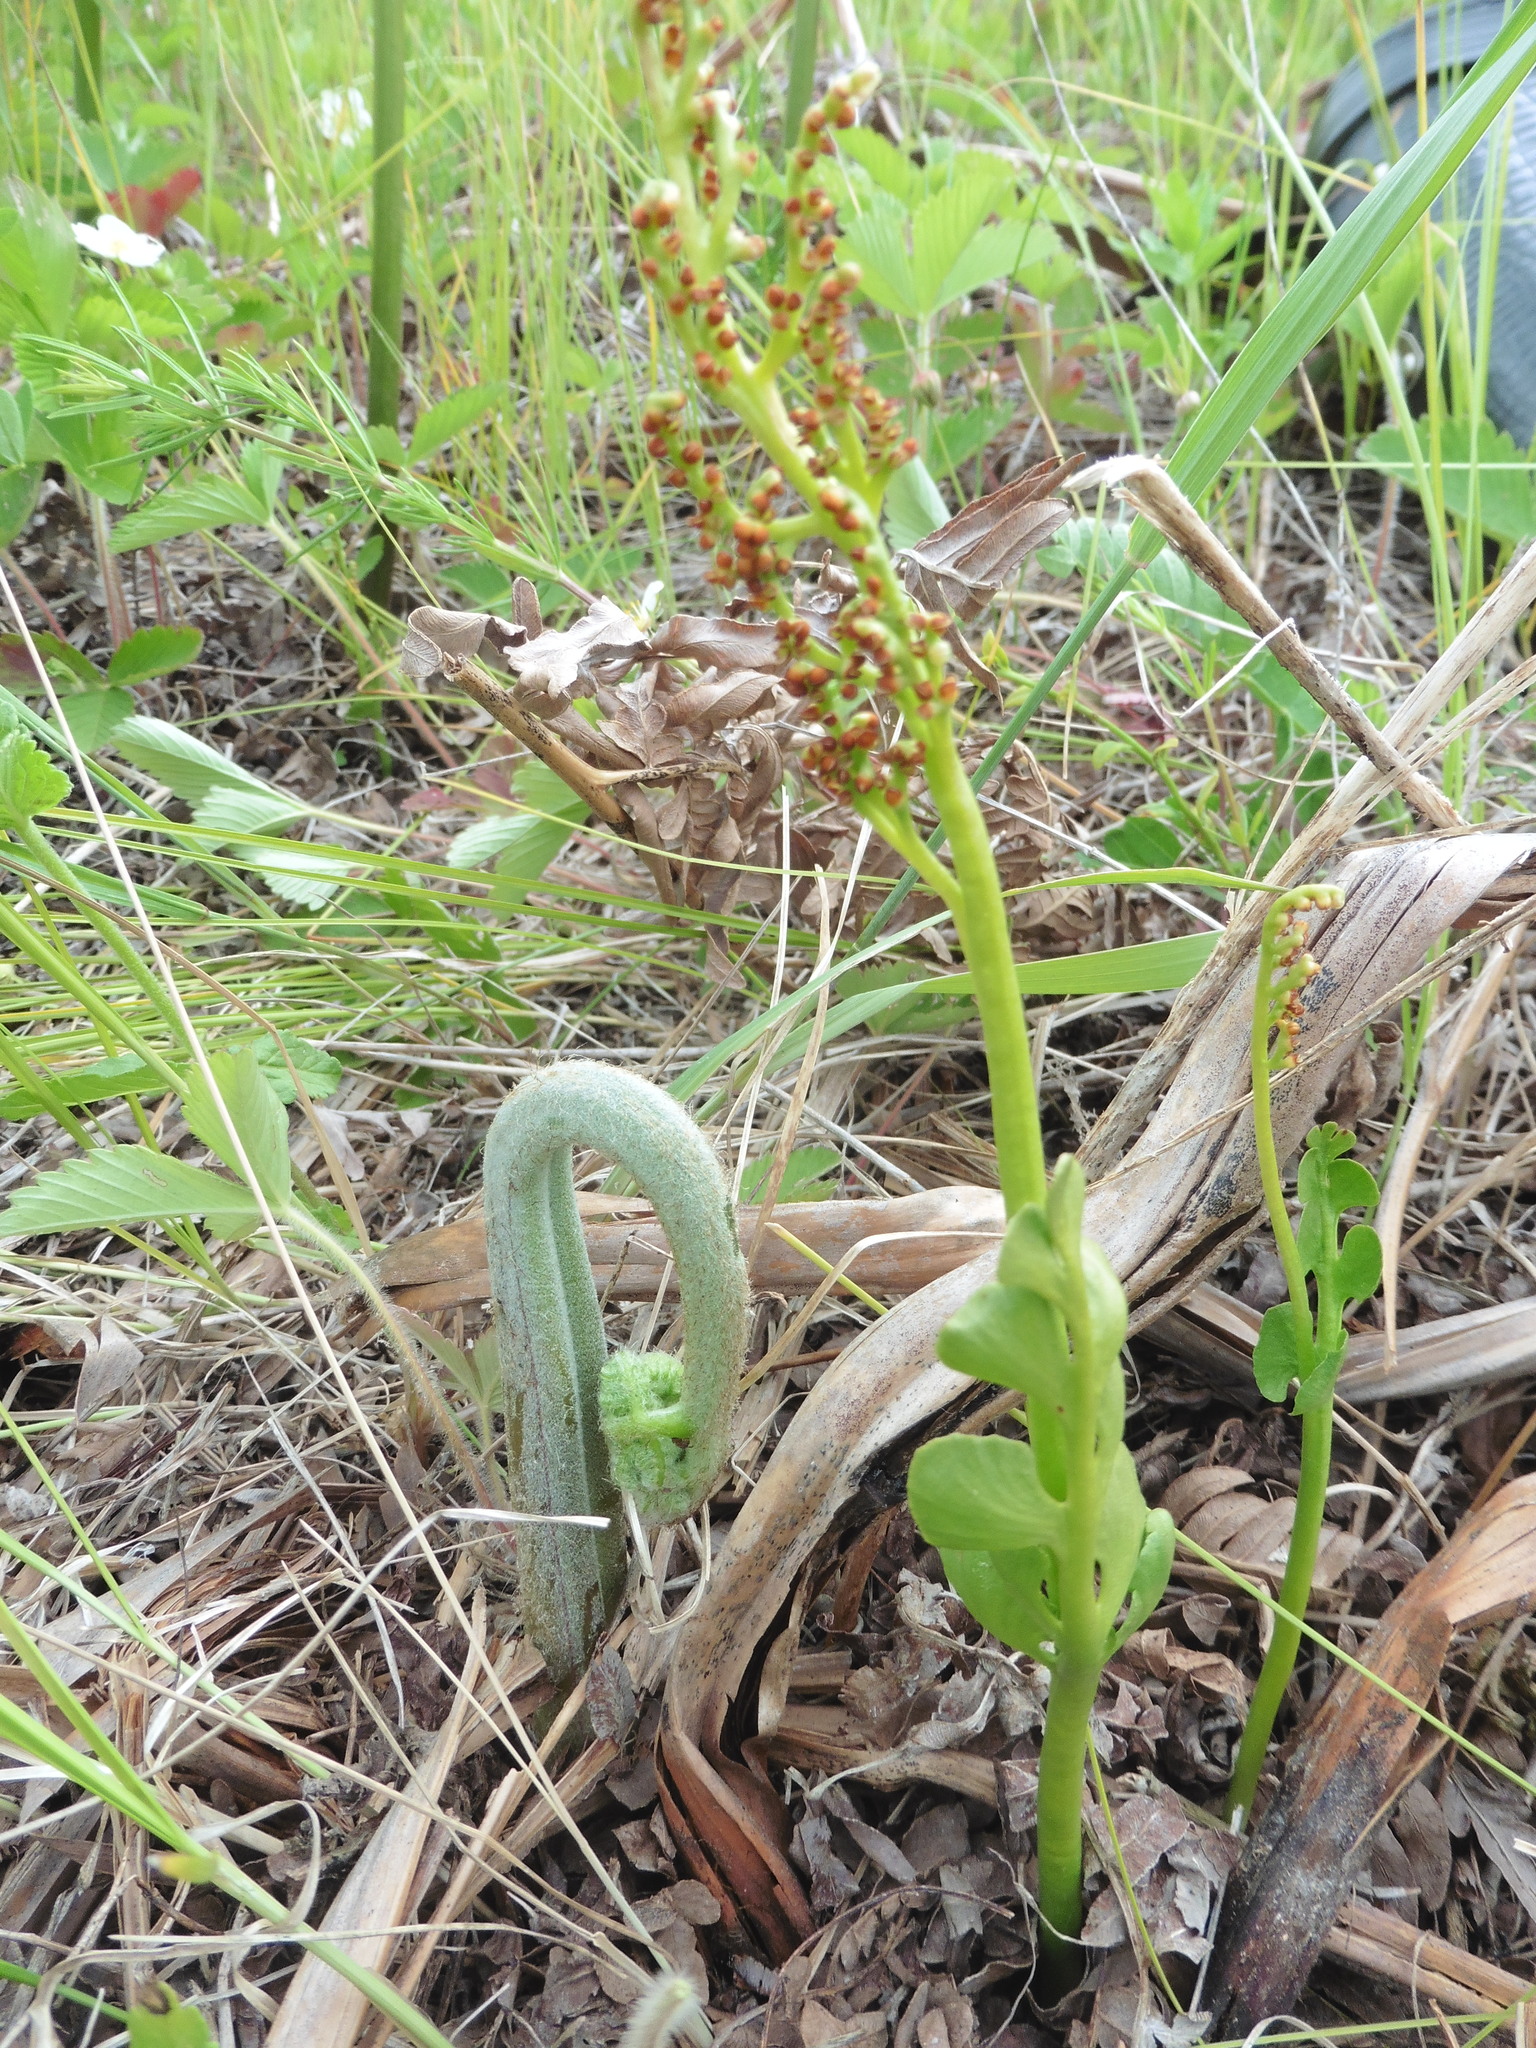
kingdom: Plantae
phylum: Tracheophyta
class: Polypodiopsida
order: Ophioglossales
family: Ophioglossaceae
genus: Botrychium
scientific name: Botrychium lunaria
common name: Moonwort
